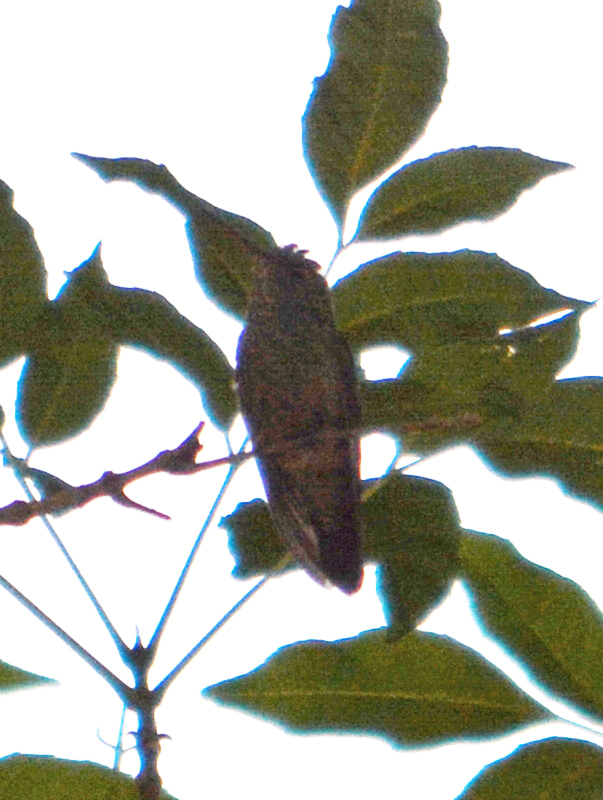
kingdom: Animalia
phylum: Chordata
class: Aves
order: Apodiformes
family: Trochilidae
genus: Saucerottia
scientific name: Saucerottia beryllina
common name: Berylline hummingbird
